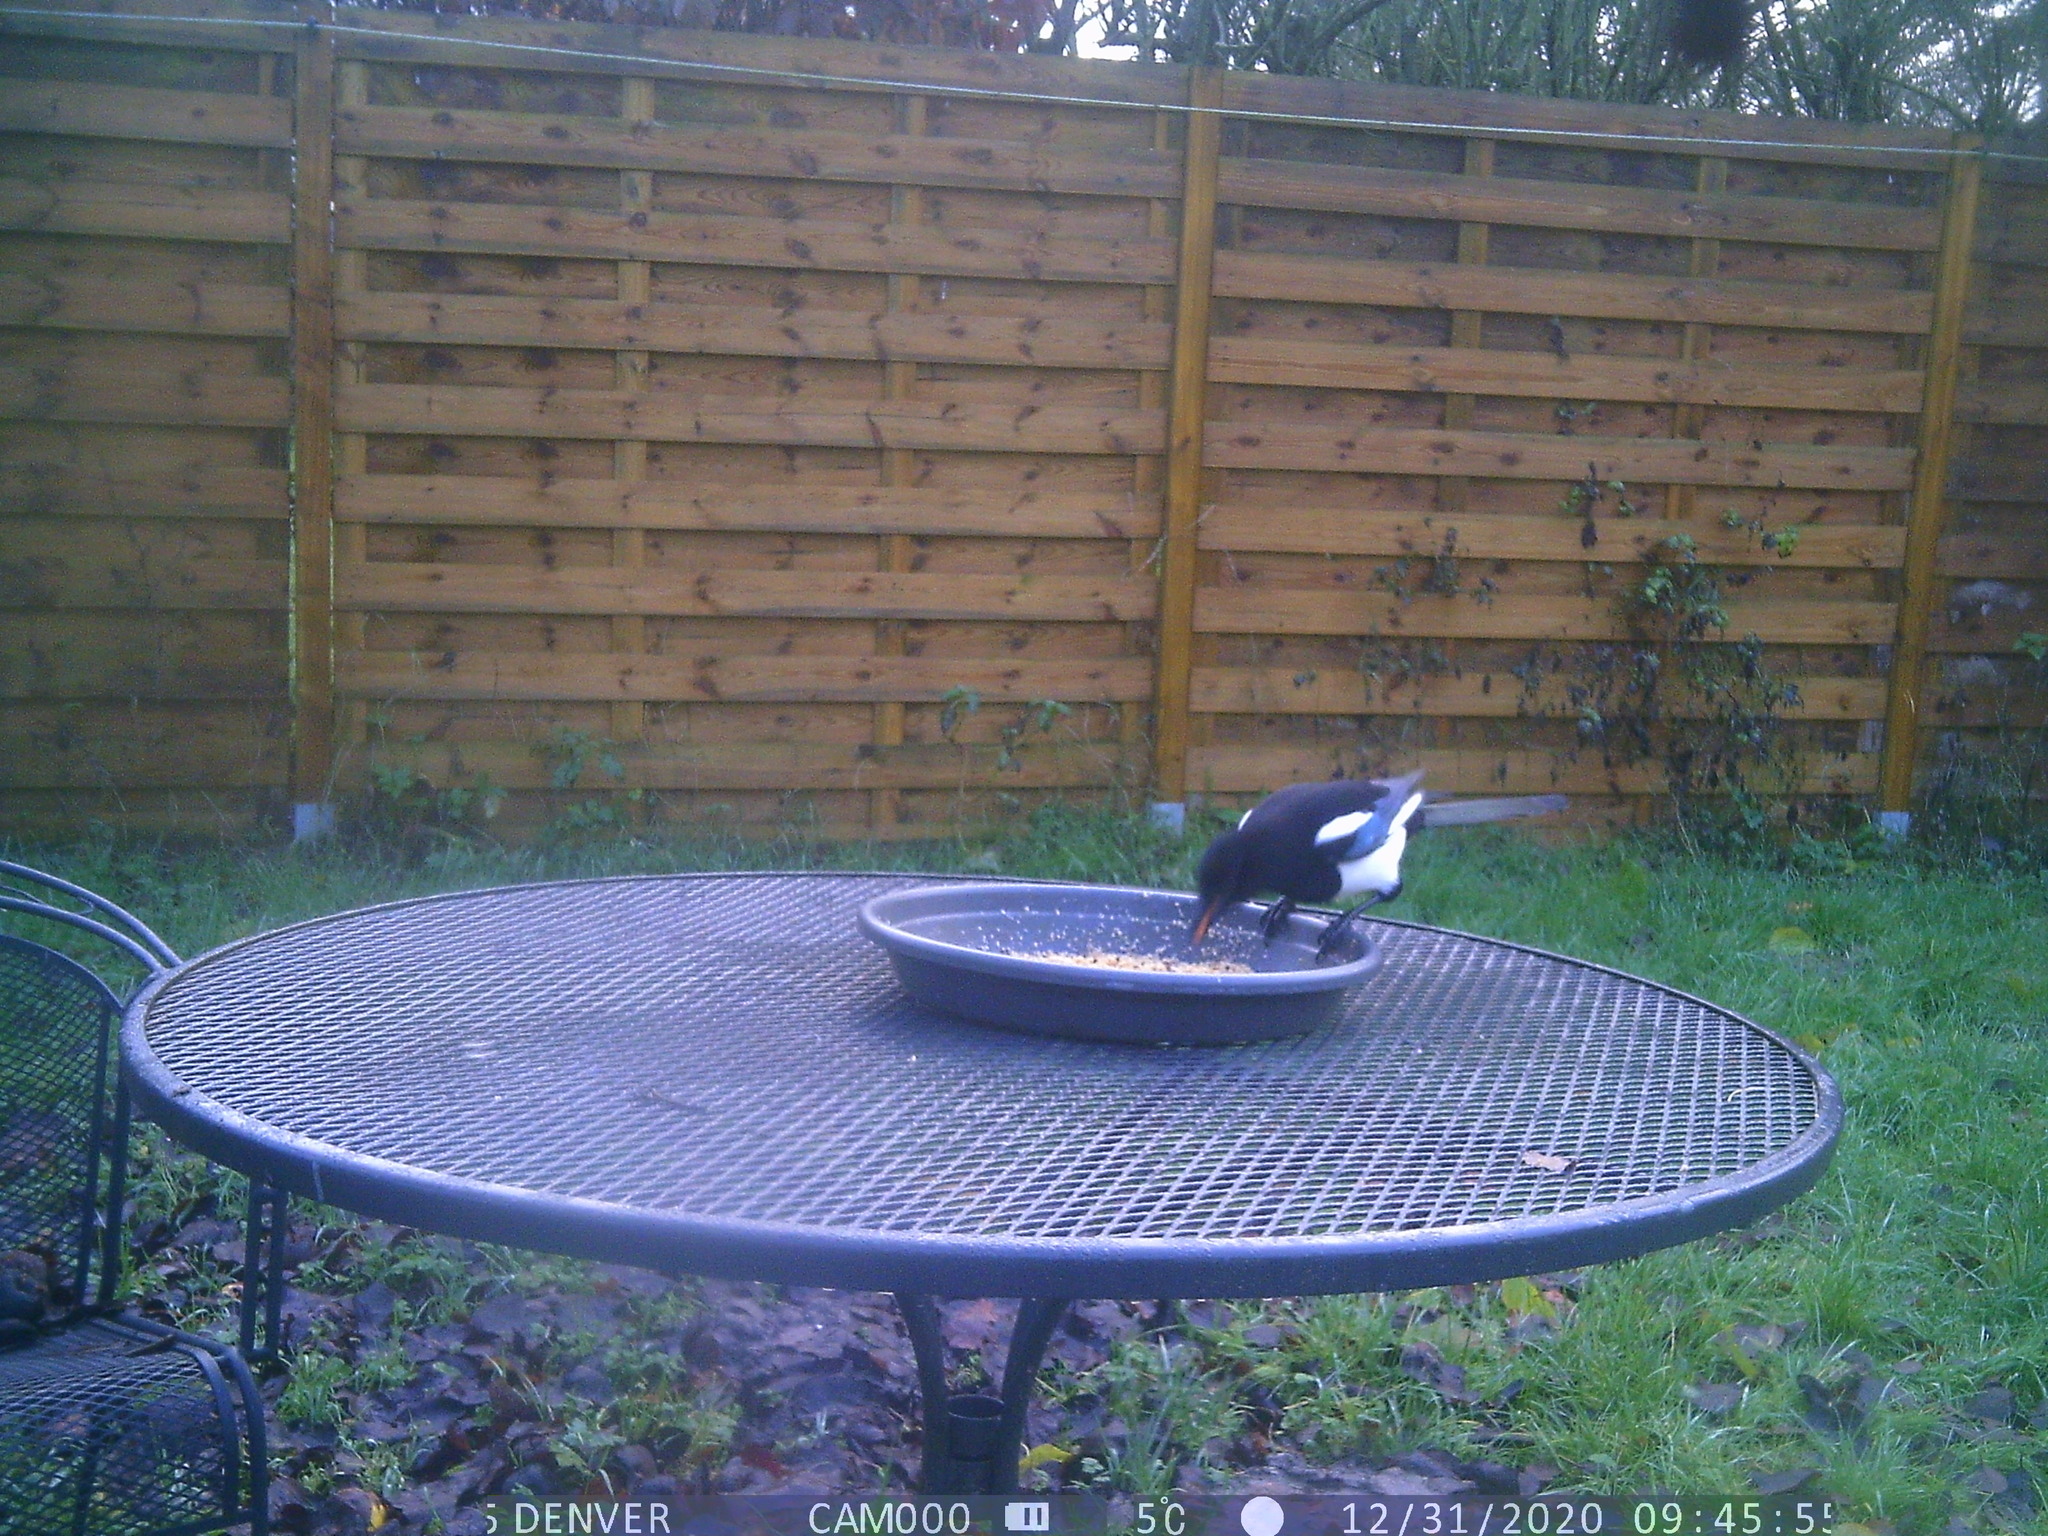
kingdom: Animalia
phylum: Chordata
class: Aves
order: Passeriformes
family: Corvidae
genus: Pica
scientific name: Pica pica
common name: Eurasian magpie
